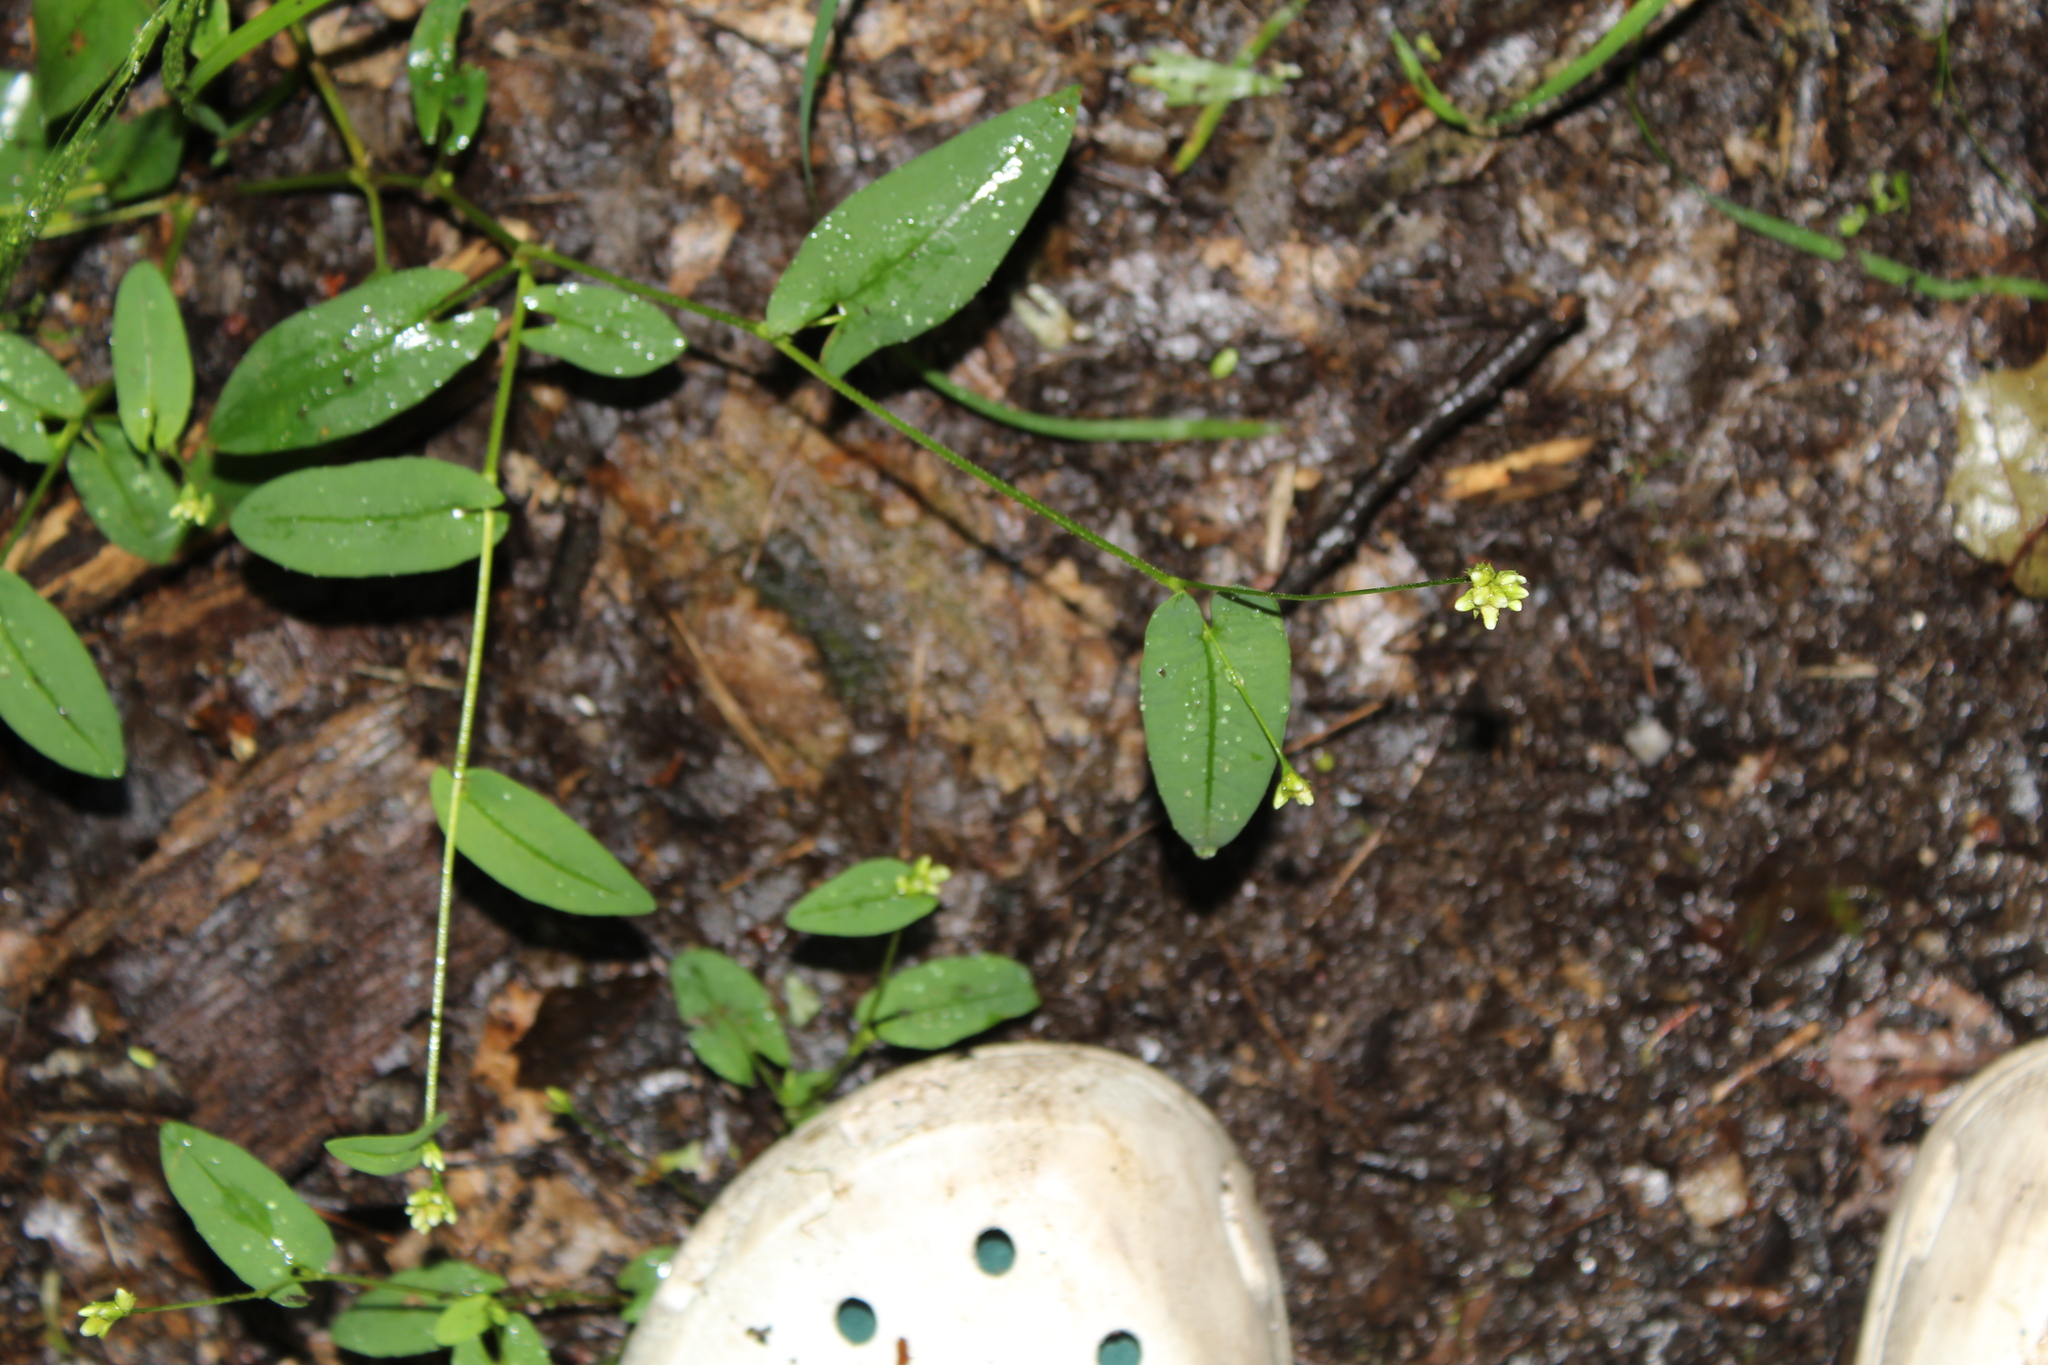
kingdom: Plantae
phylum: Tracheophyta
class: Magnoliopsida
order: Caryophyllales
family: Polygonaceae
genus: Persicaria
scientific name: Persicaria sagittata
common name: American tearthumb
